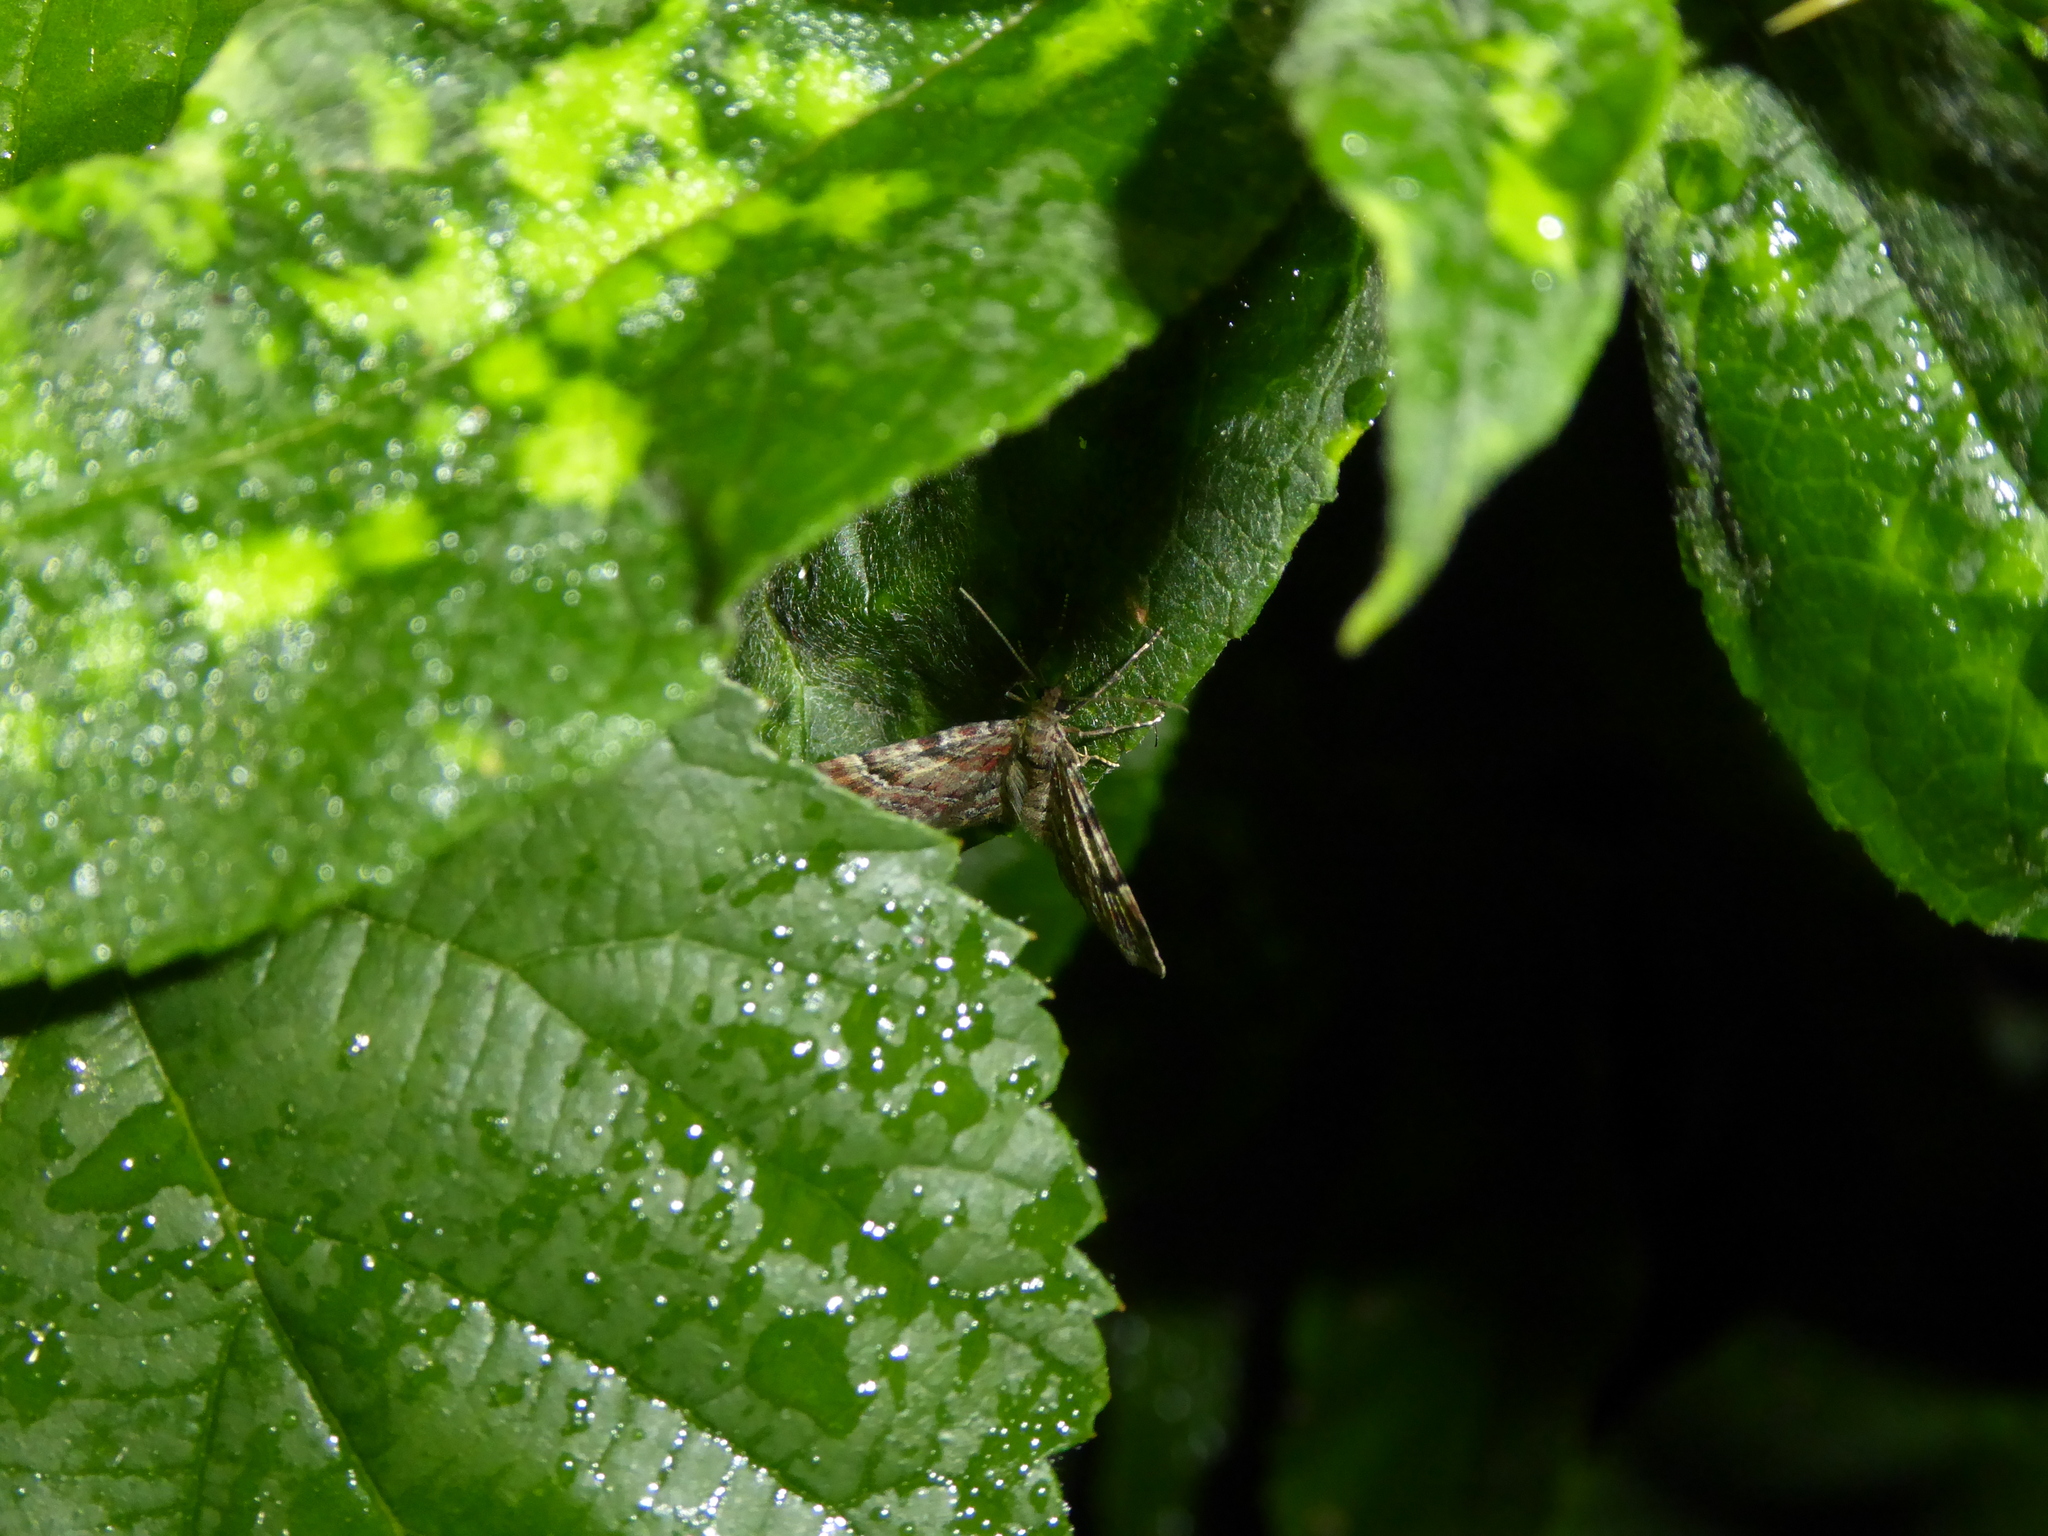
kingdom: Animalia
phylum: Arthropoda
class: Insecta
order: Lepidoptera
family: Geometridae
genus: Gymnoscelis
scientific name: Gymnoscelis rufifasciata
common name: Double-striped pug
